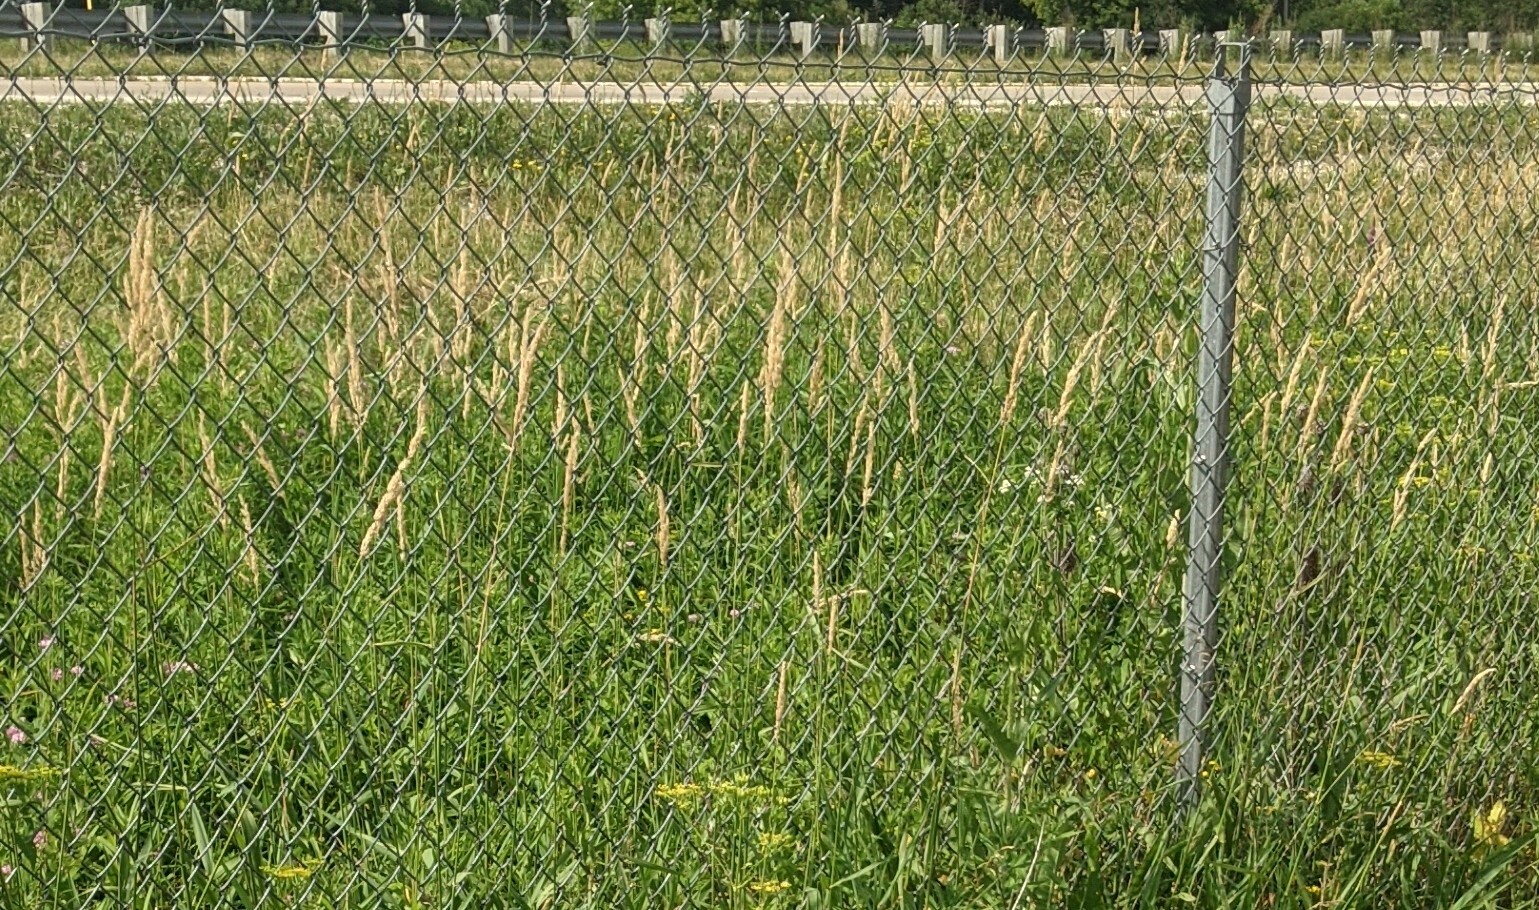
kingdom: Plantae
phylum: Tracheophyta
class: Liliopsida
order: Poales
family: Poaceae
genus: Phalaris
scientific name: Phalaris arundinacea
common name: Reed canary-grass
